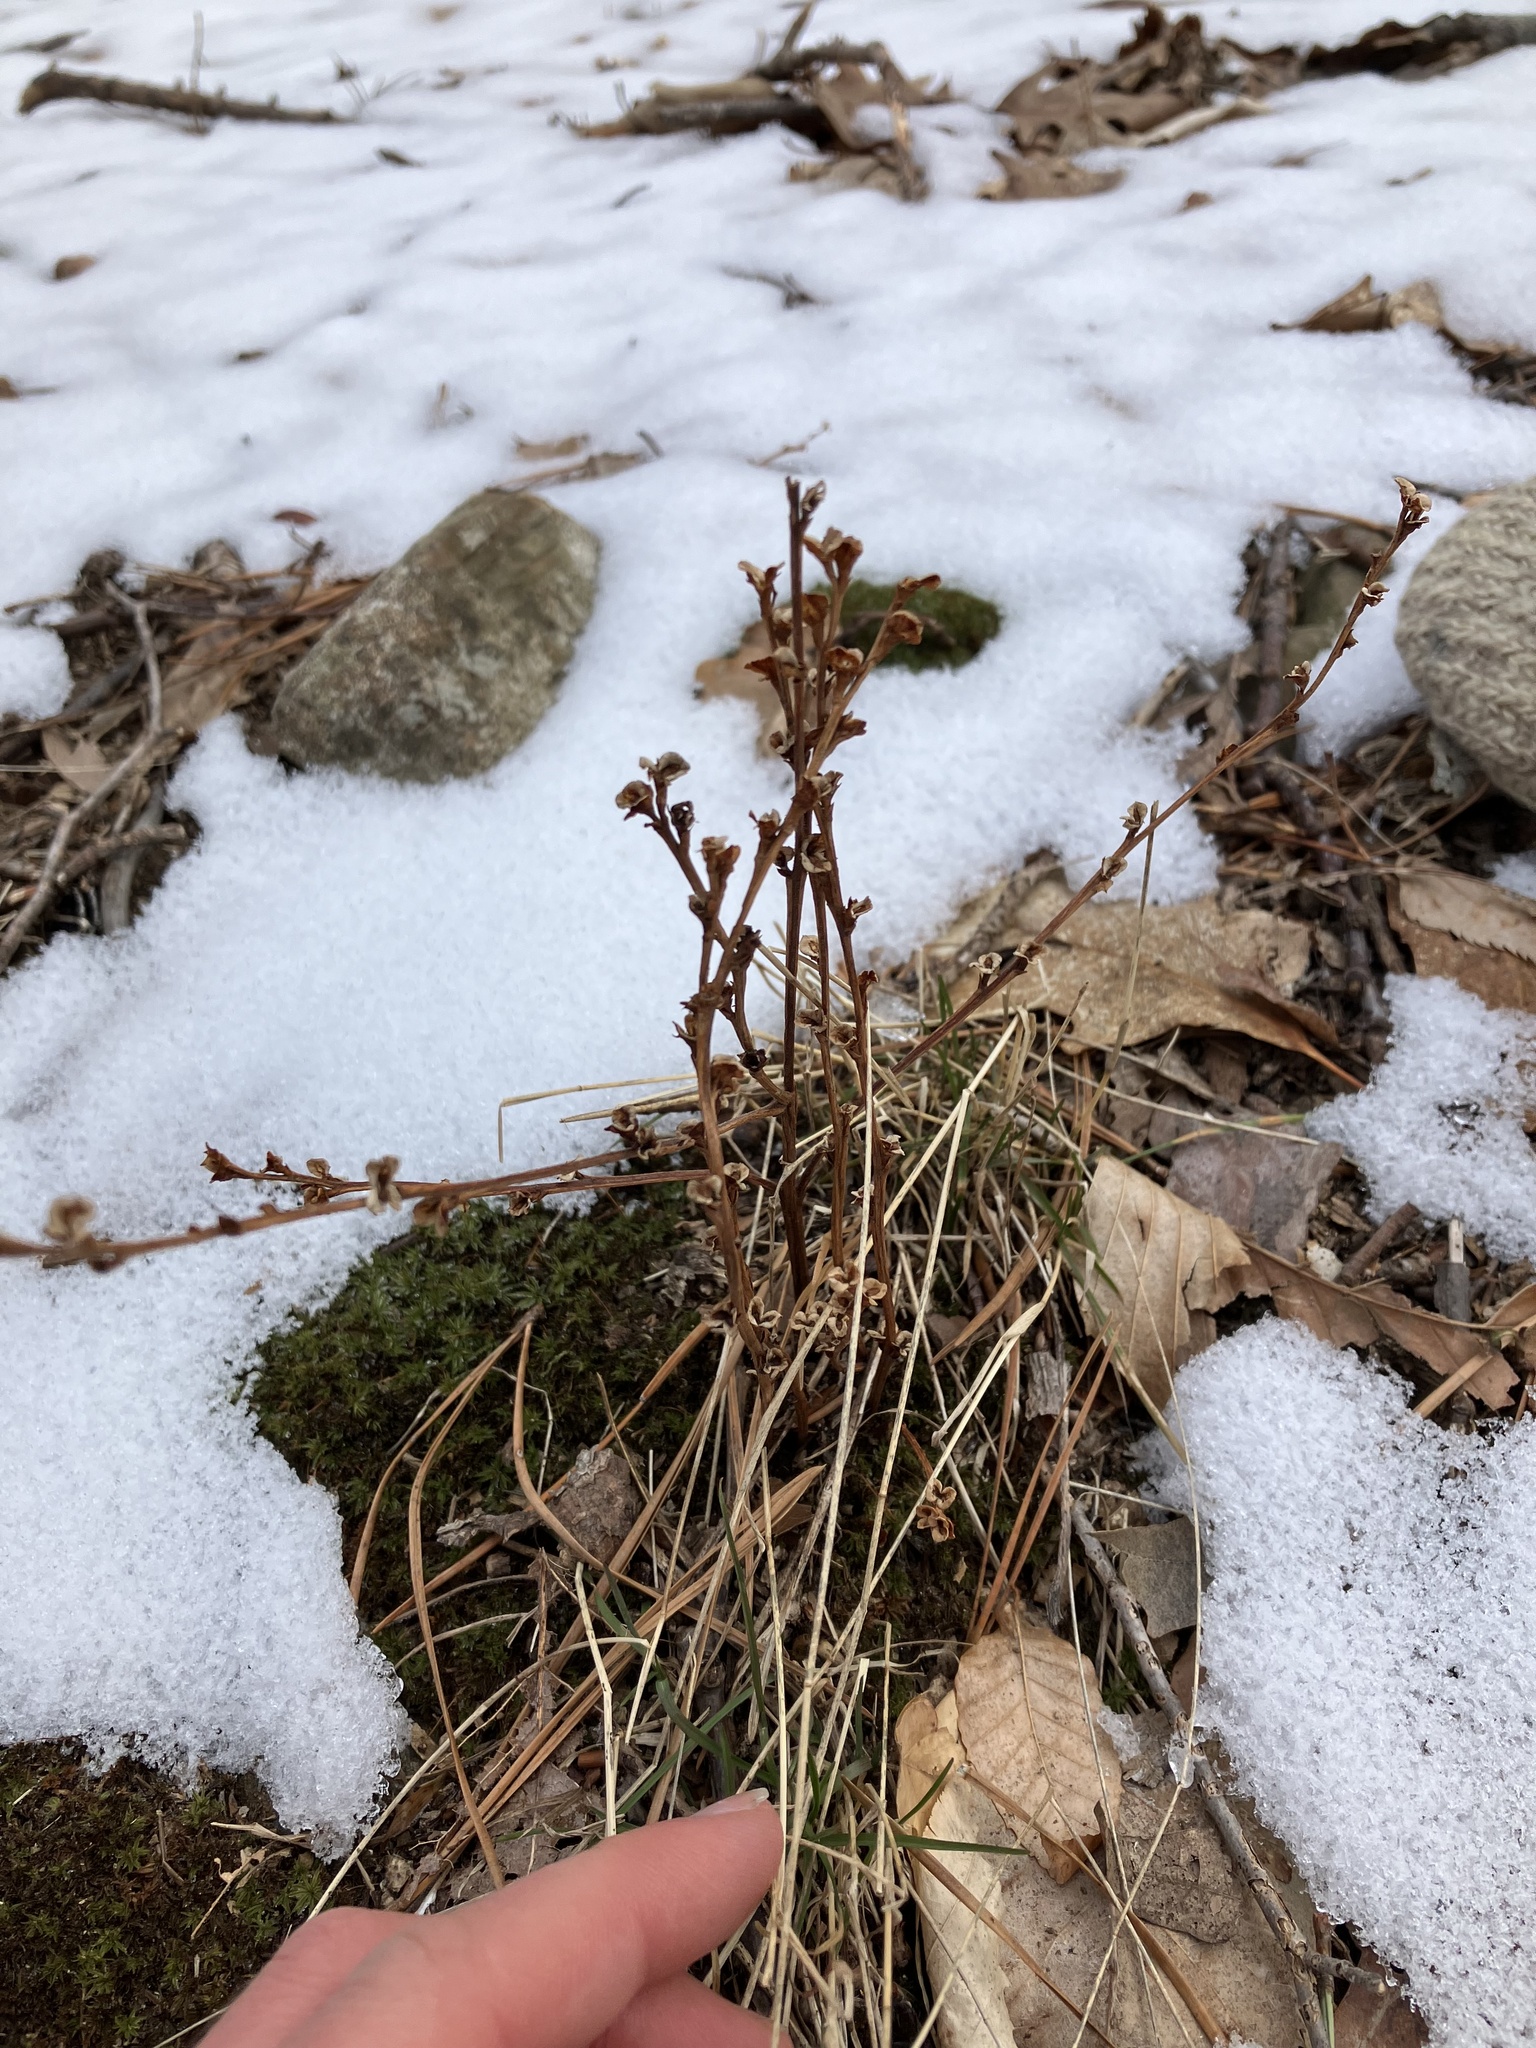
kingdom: Plantae
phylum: Tracheophyta
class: Magnoliopsida
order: Lamiales
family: Orobanchaceae
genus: Epifagus
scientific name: Epifagus virginiana
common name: Beechdrops
